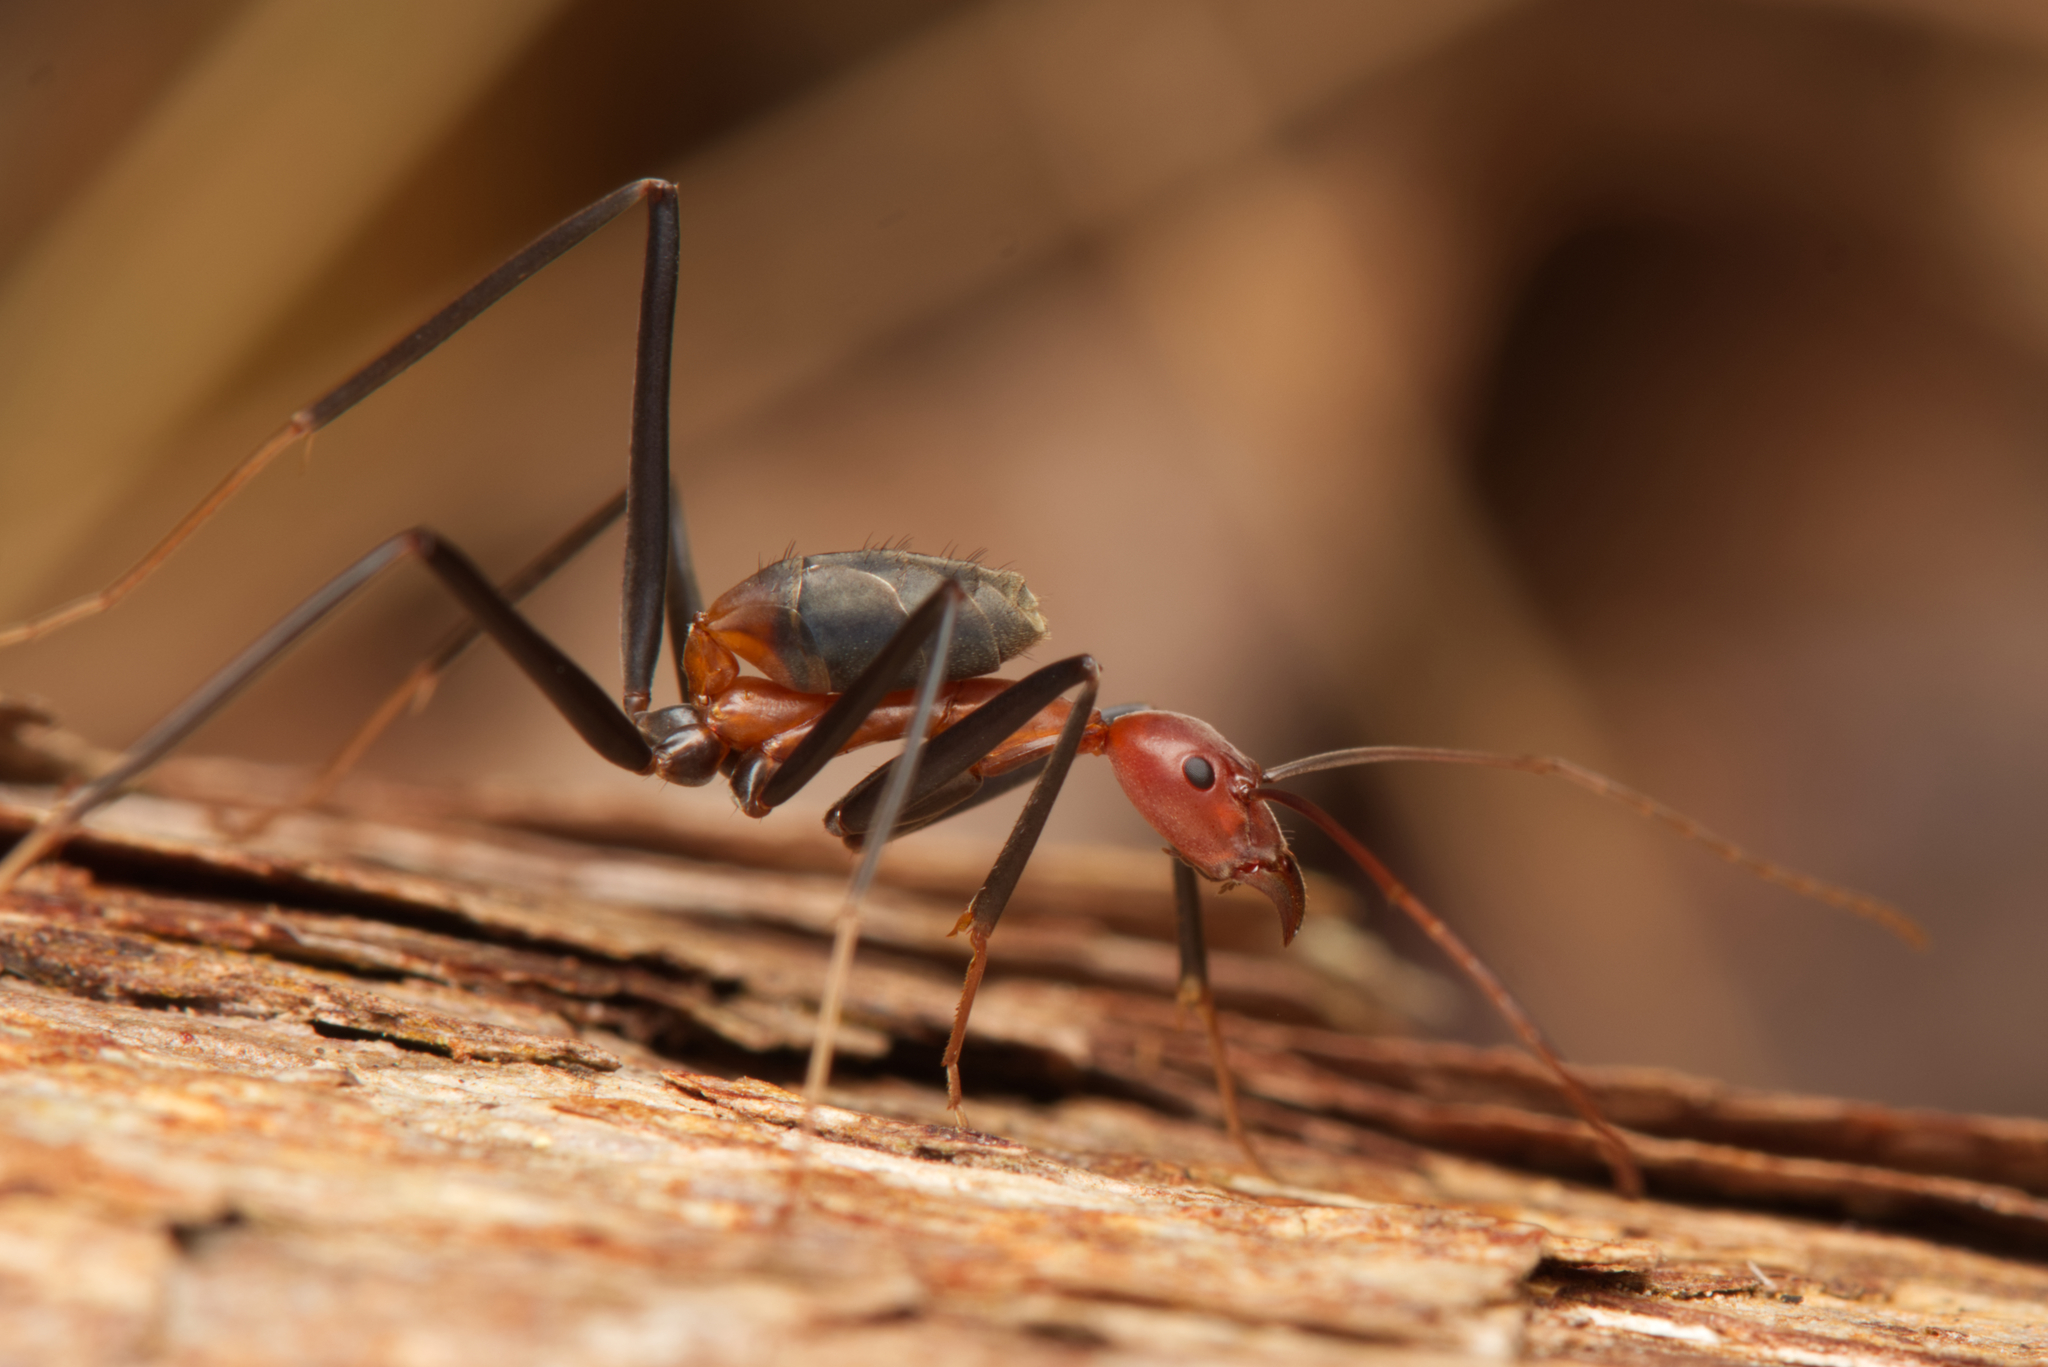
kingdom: Animalia
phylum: Arthropoda
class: Insecta
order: Hymenoptera
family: Formicidae
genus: Leptomyrmex
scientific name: Leptomyrmex rufithorax
